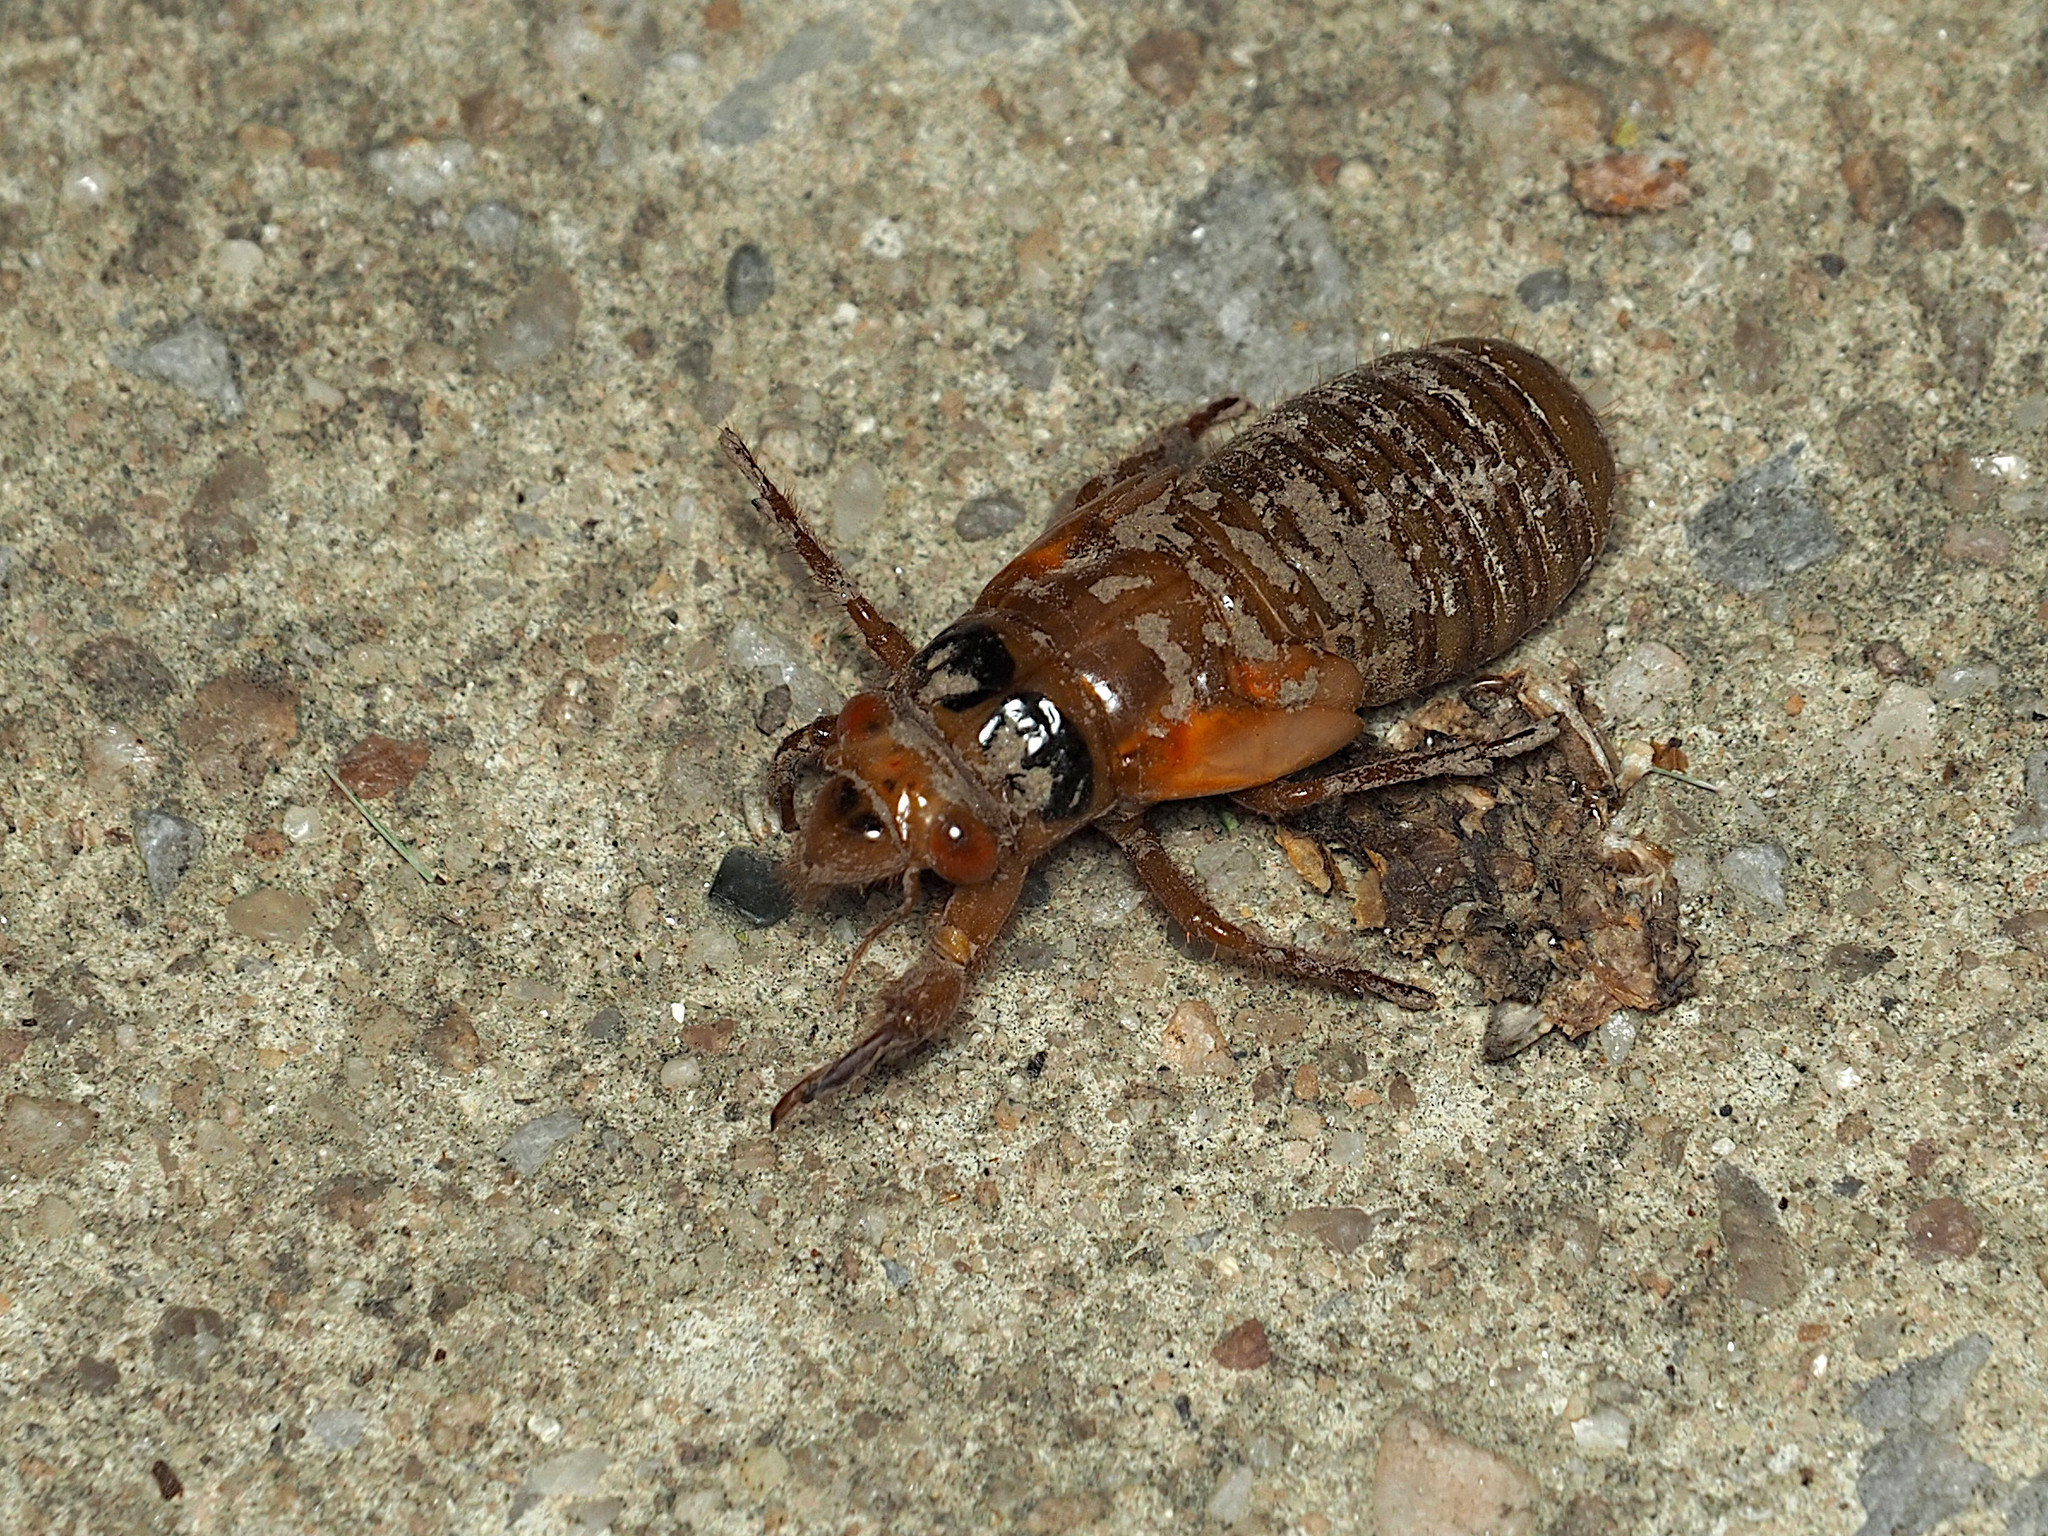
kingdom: Animalia
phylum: Arthropoda
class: Insecta
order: Hemiptera
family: Cicadidae
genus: Magicicada
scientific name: Magicicada
